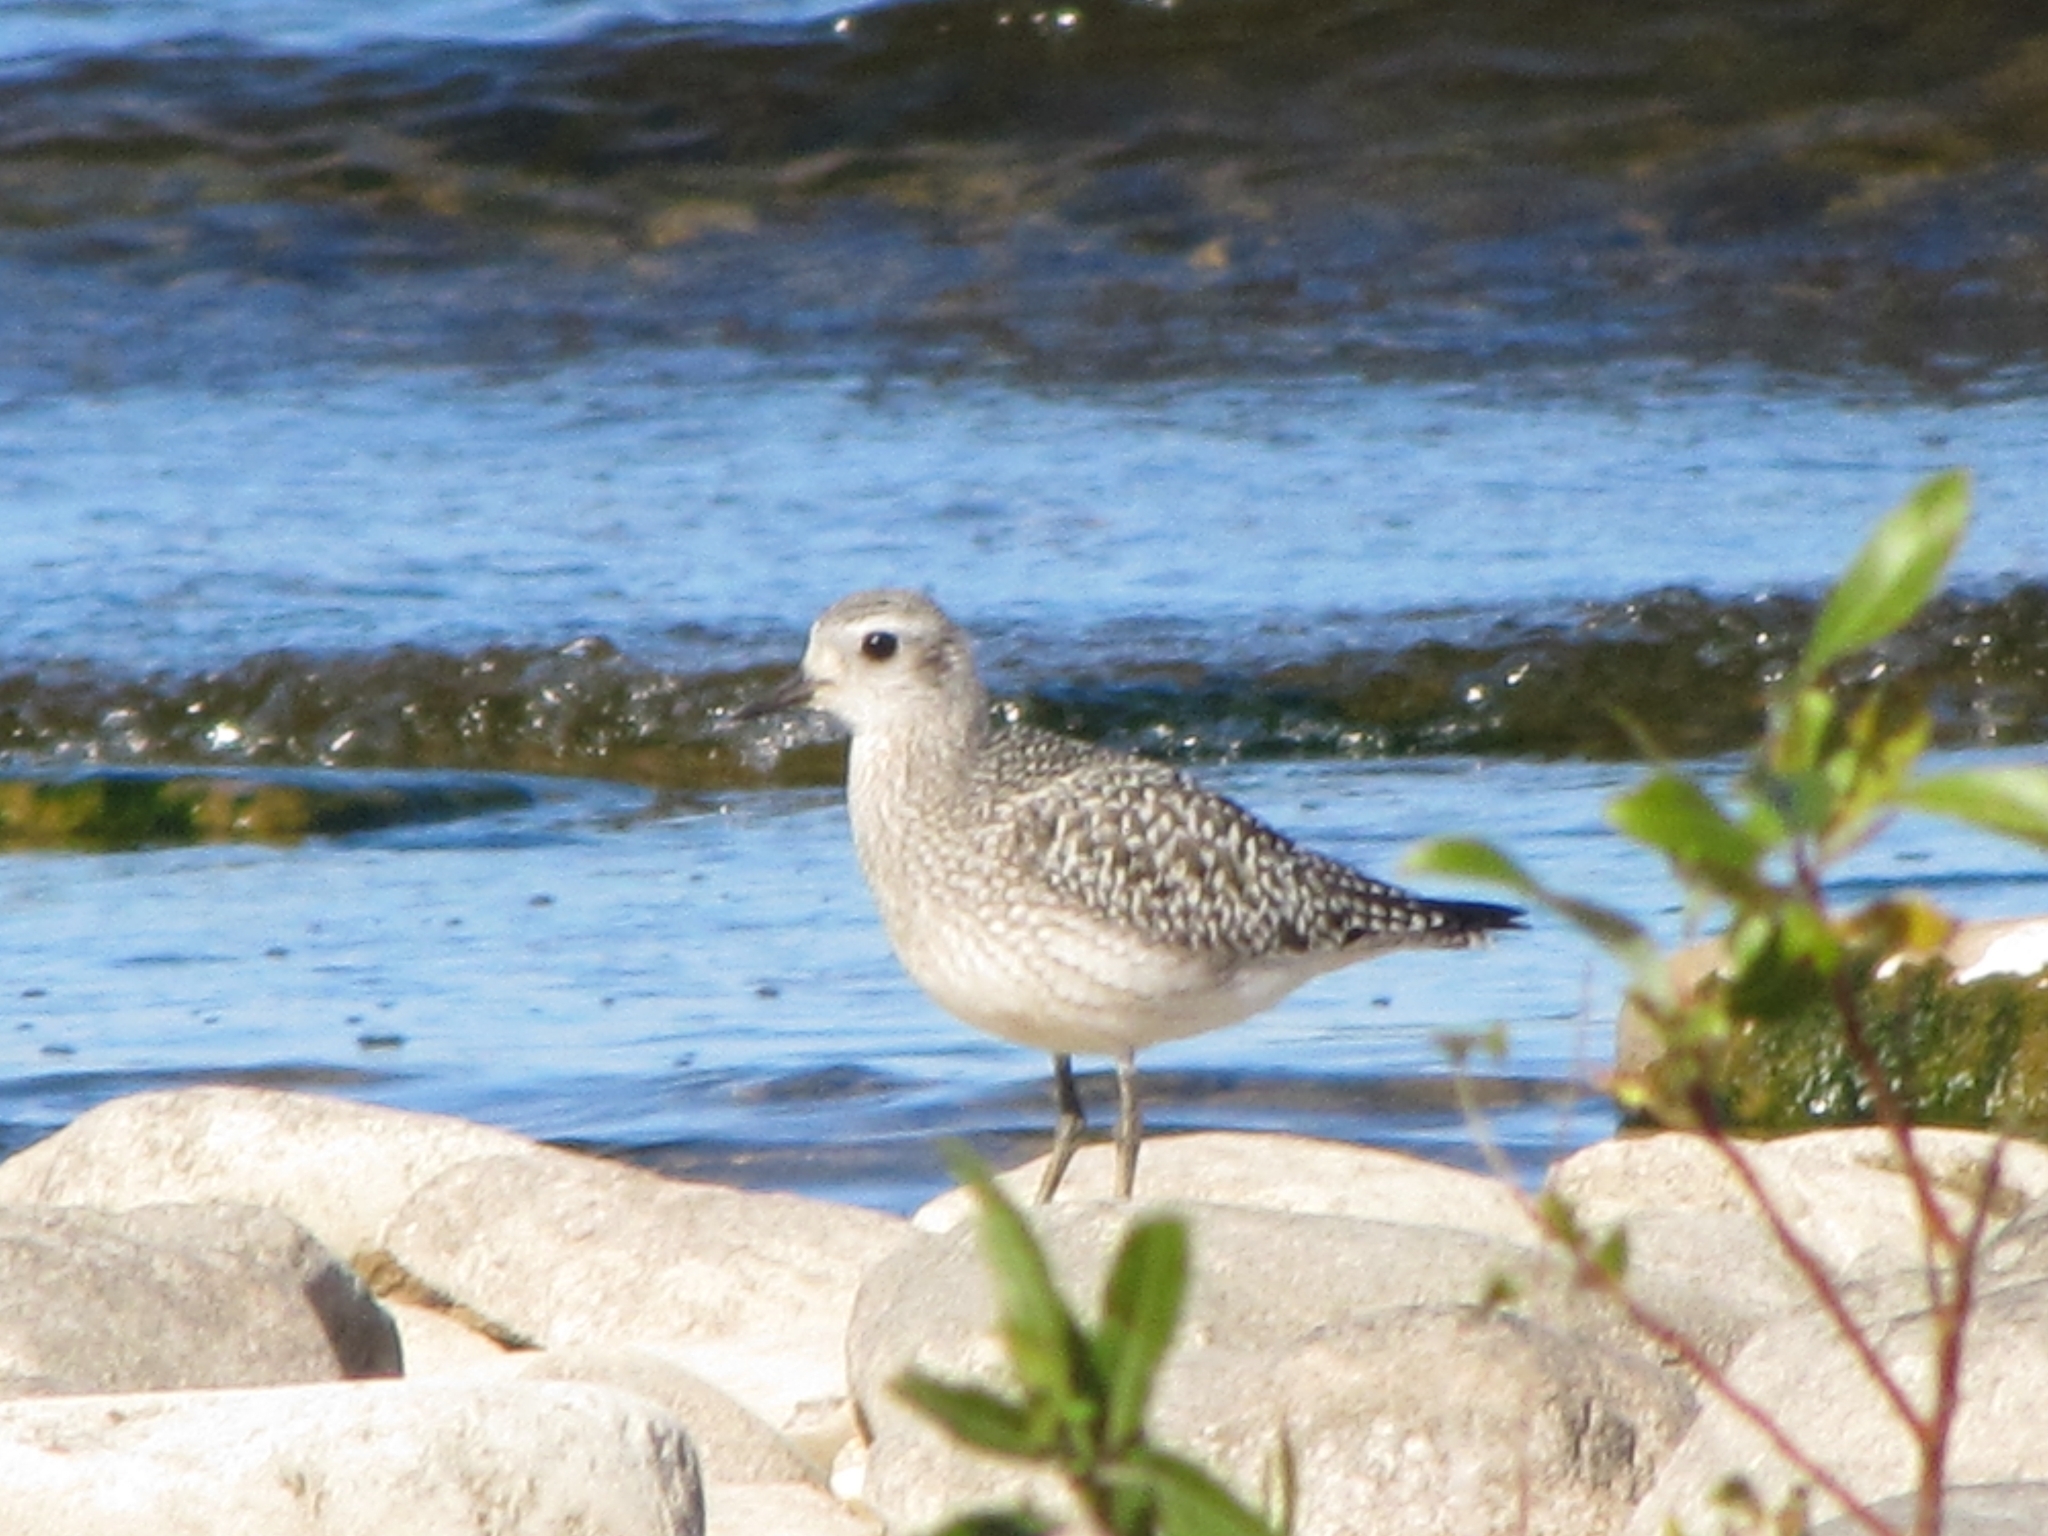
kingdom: Animalia
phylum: Chordata
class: Aves
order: Charadriiformes
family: Charadriidae
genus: Pluvialis
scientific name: Pluvialis dominica
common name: American golden plover
